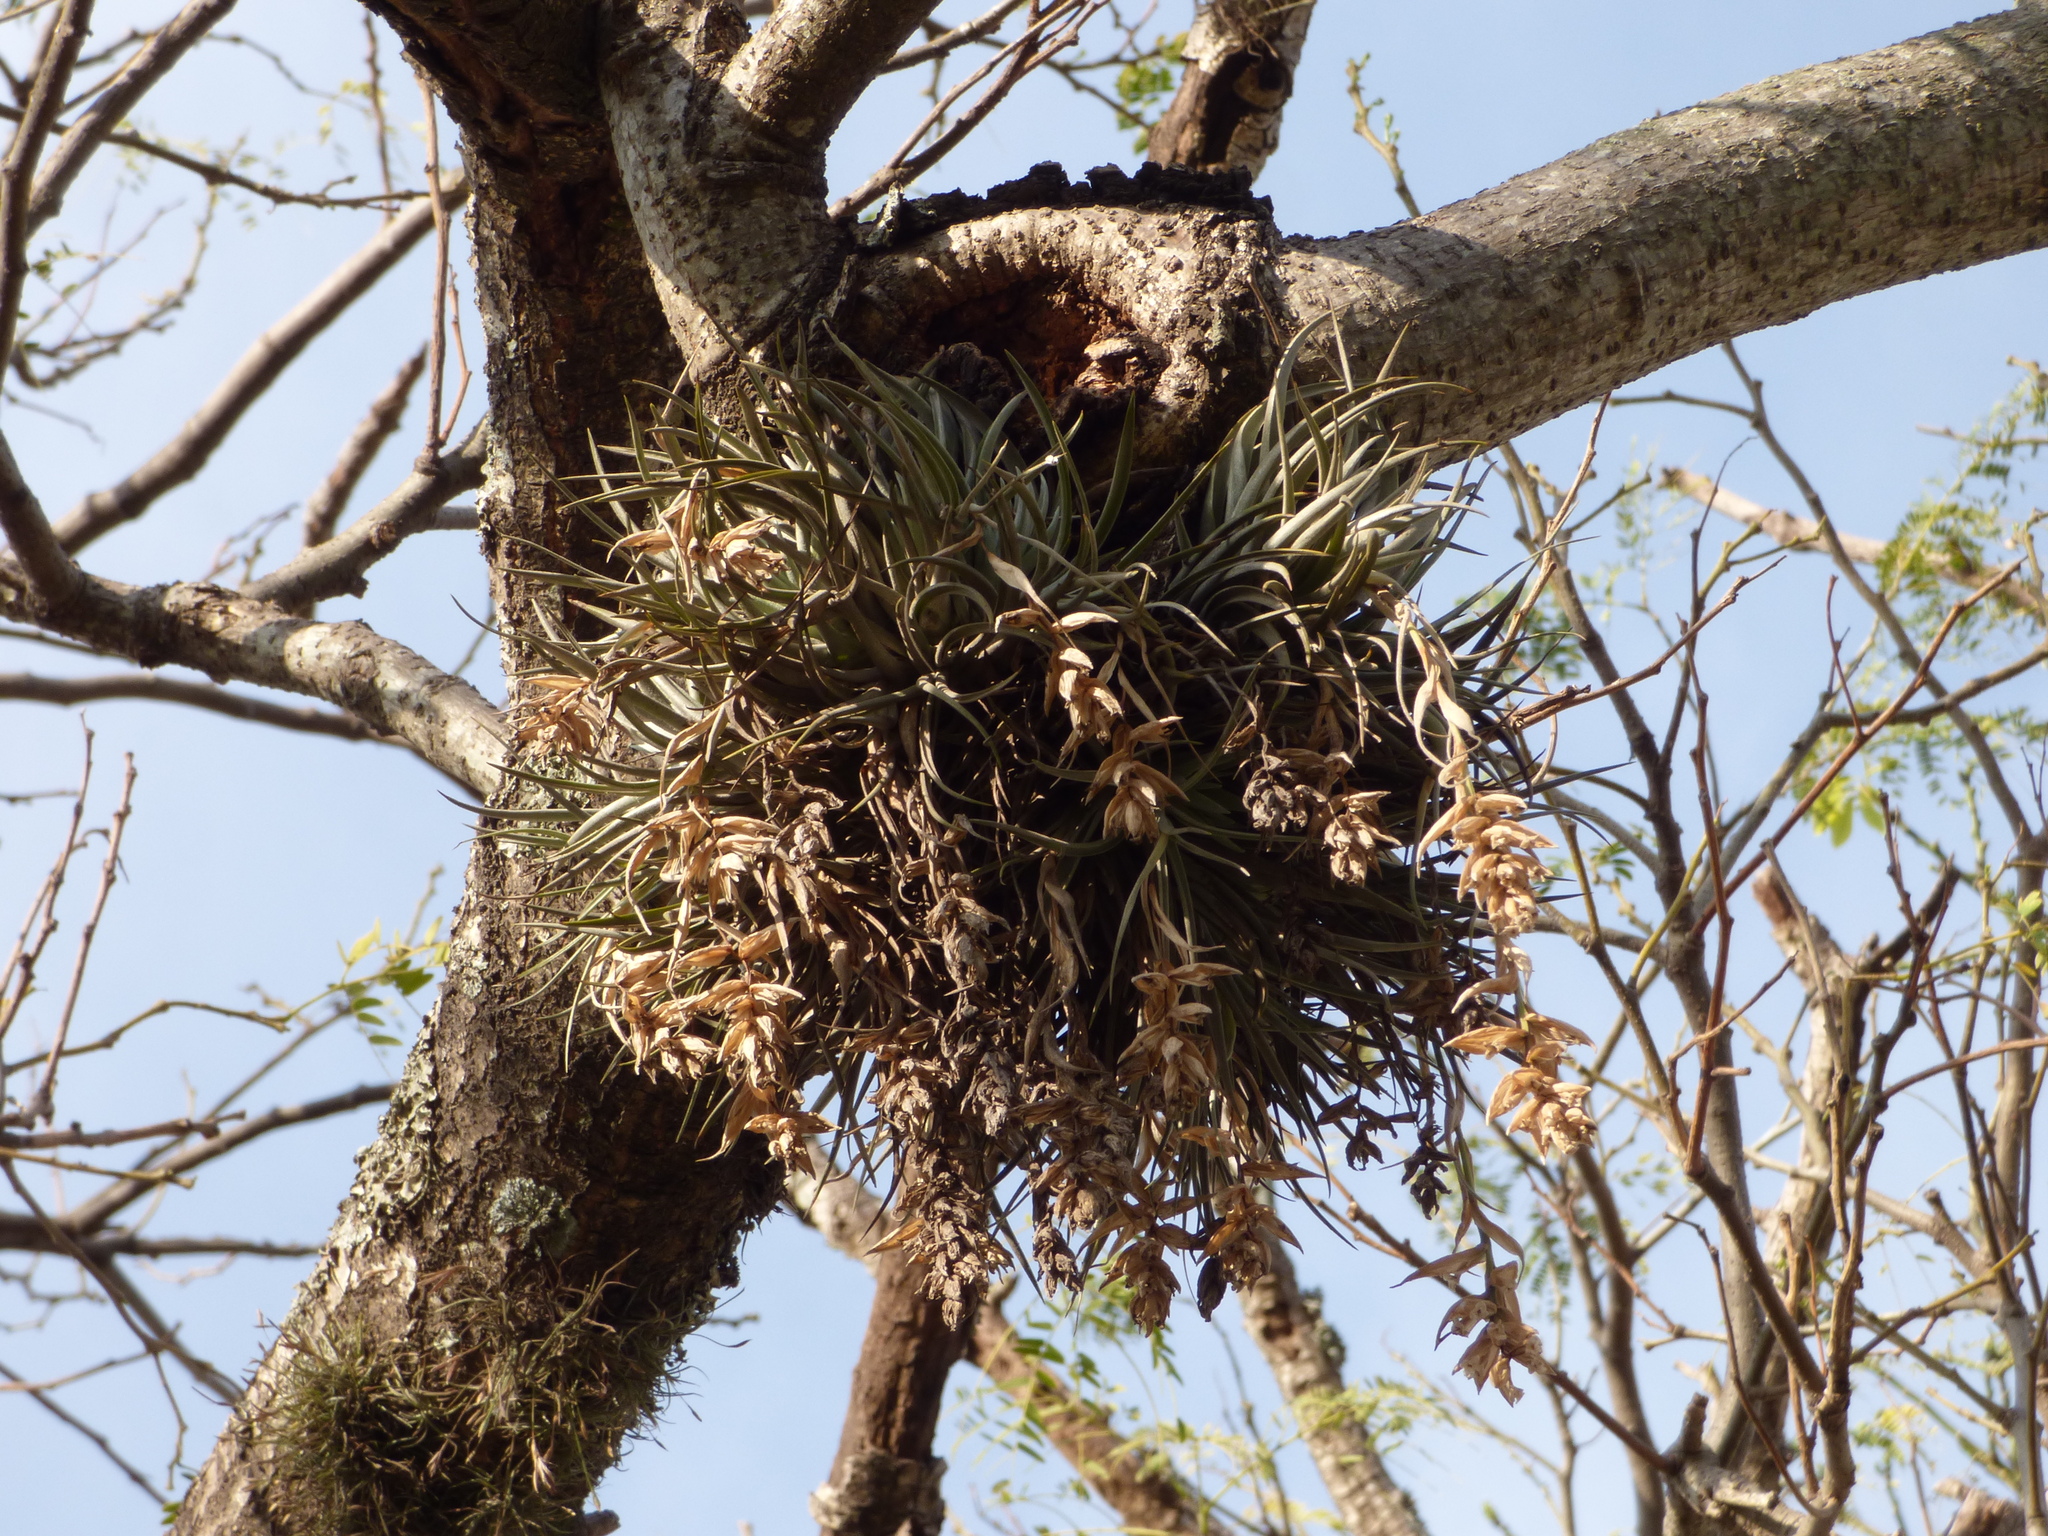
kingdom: Plantae
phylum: Tracheophyta
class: Liliopsida
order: Poales
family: Bromeliaceae
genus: Tillandsia
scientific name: Tillandsia recurvifolia
